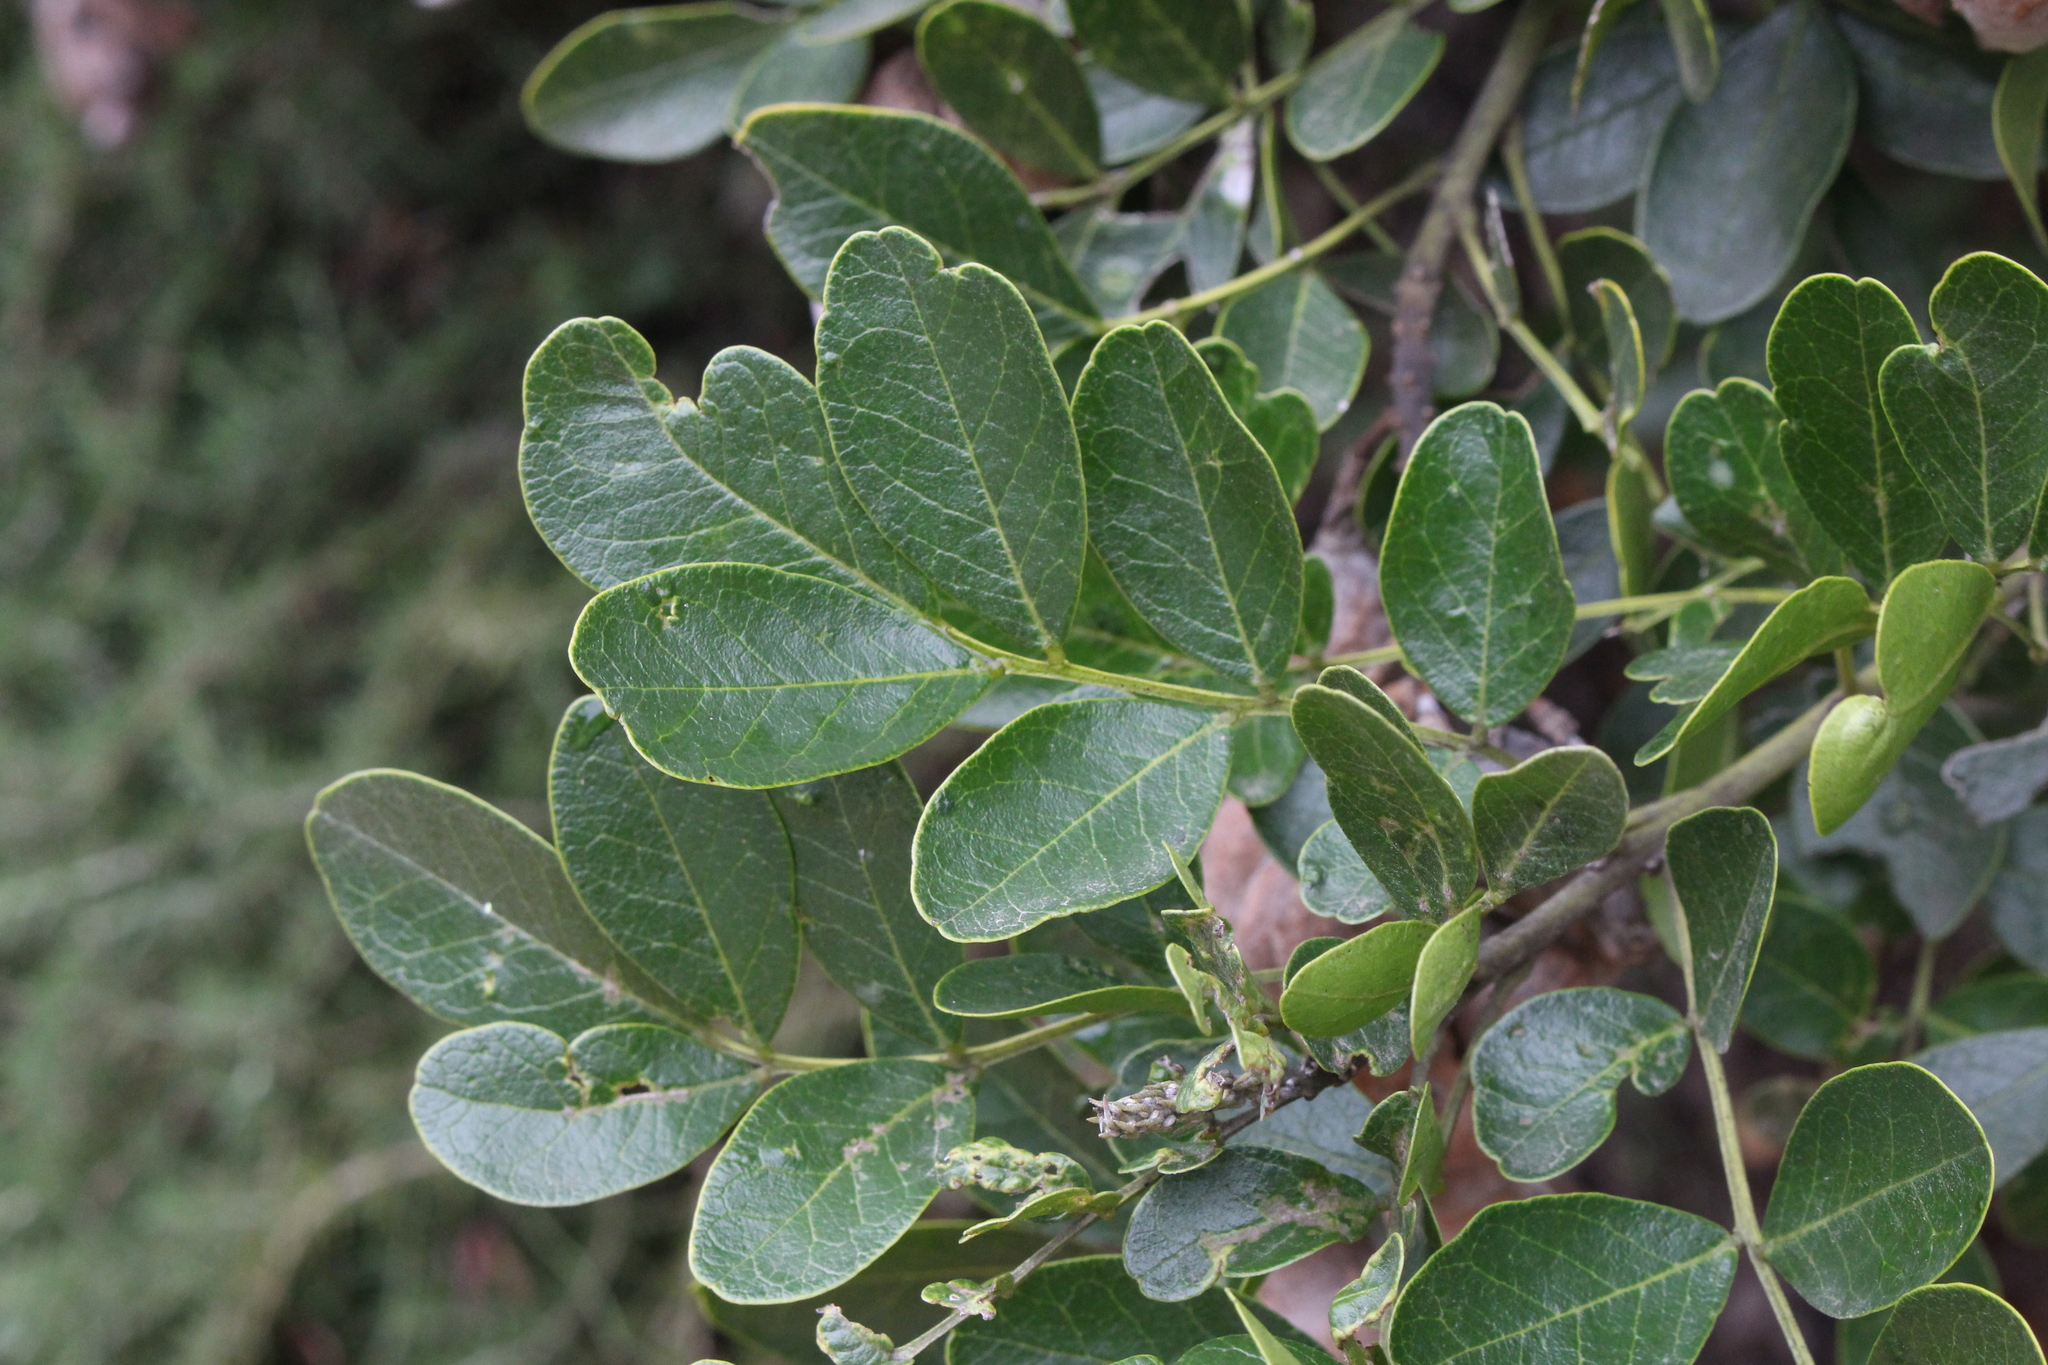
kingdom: Plantae
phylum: Tracheophyta
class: Magnoliopsida
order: Fabales
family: Fabaceae
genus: Dermatophyllum
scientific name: Dermatophyllum secundiflorum
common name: Texas-mountain-laurel
